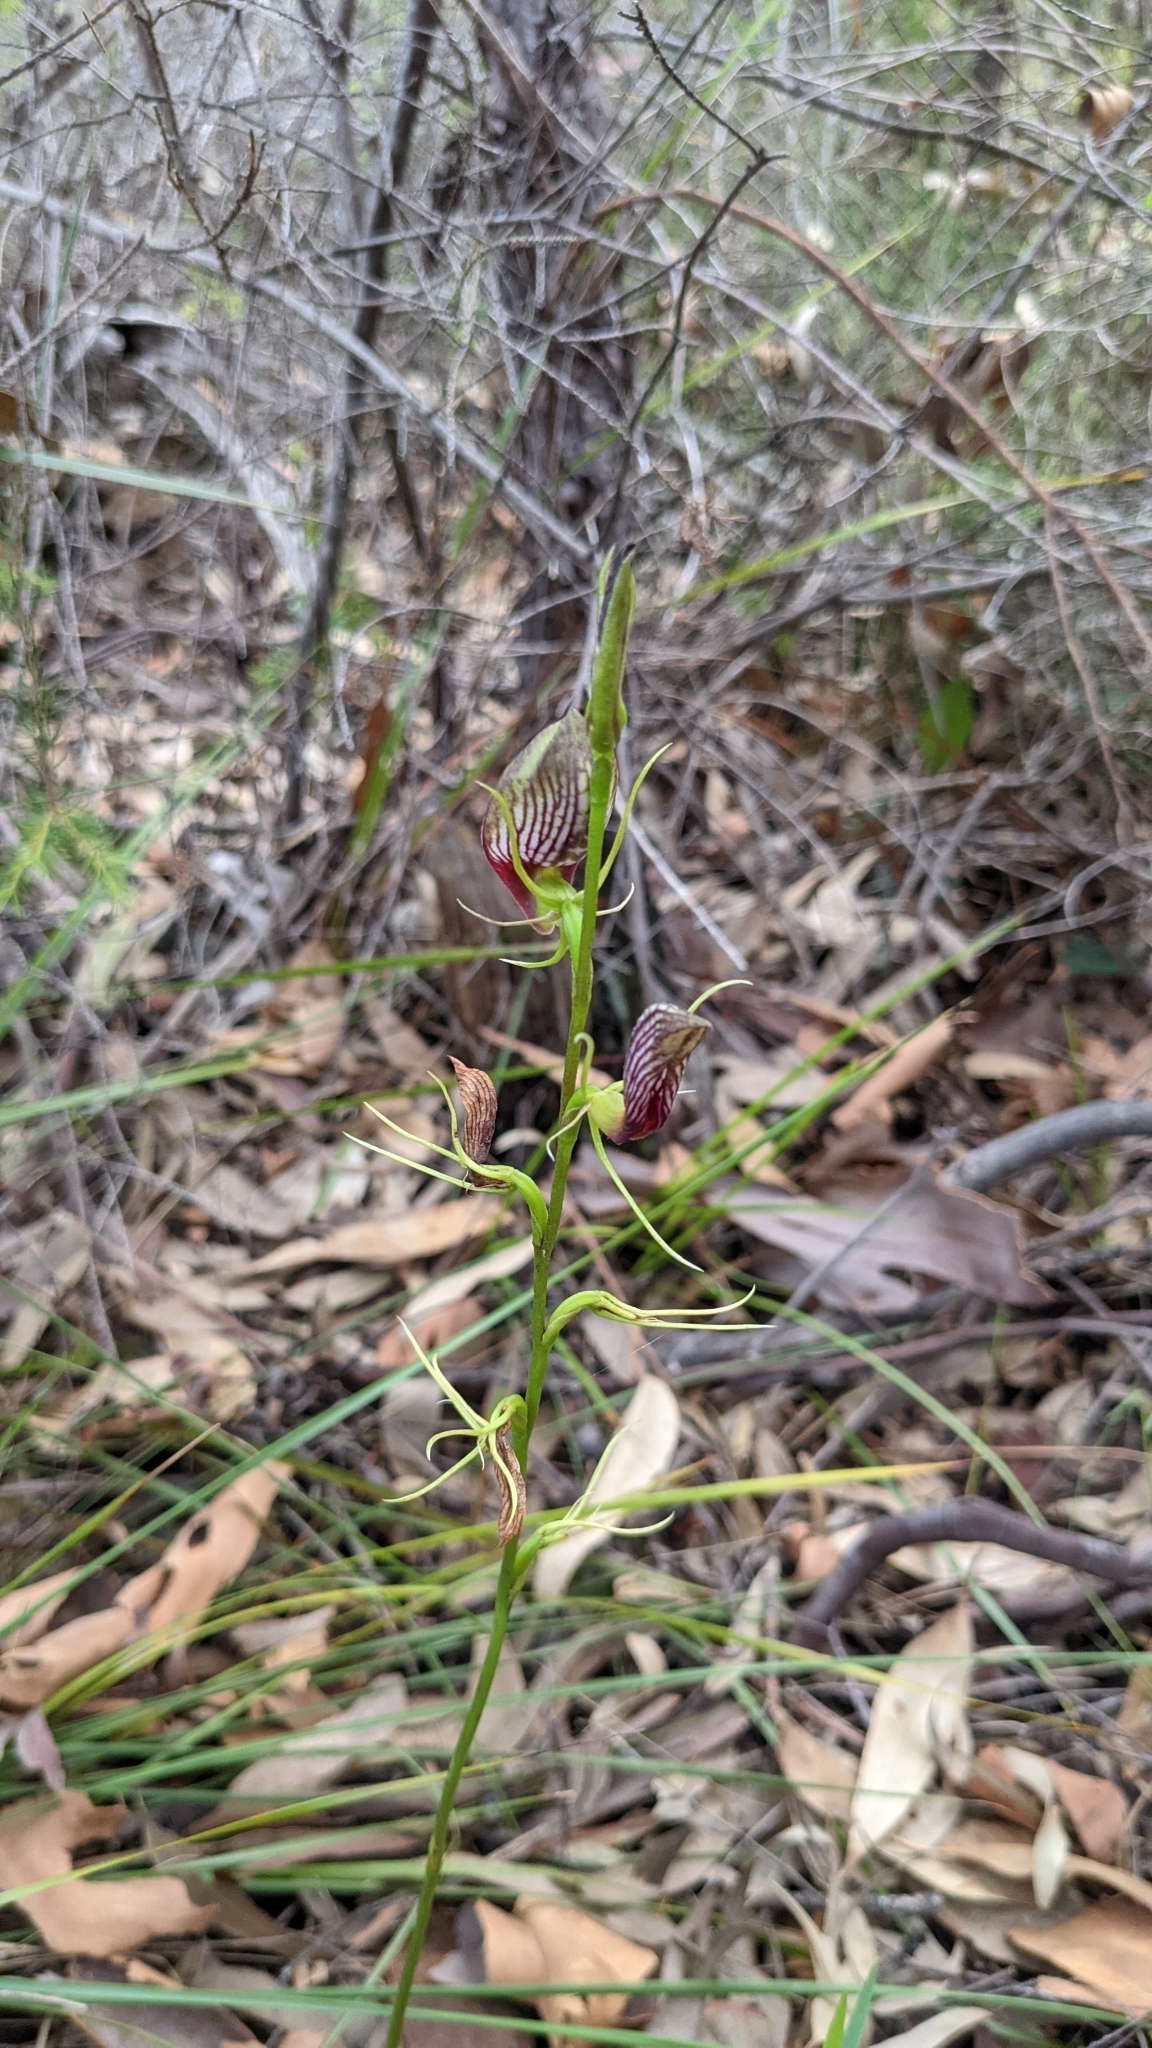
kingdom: Plantae
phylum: Tracheophyta
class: Liliopsida
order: Asparagales
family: Orchidaceae
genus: Cryptostylis
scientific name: Cryptostylis erecta
